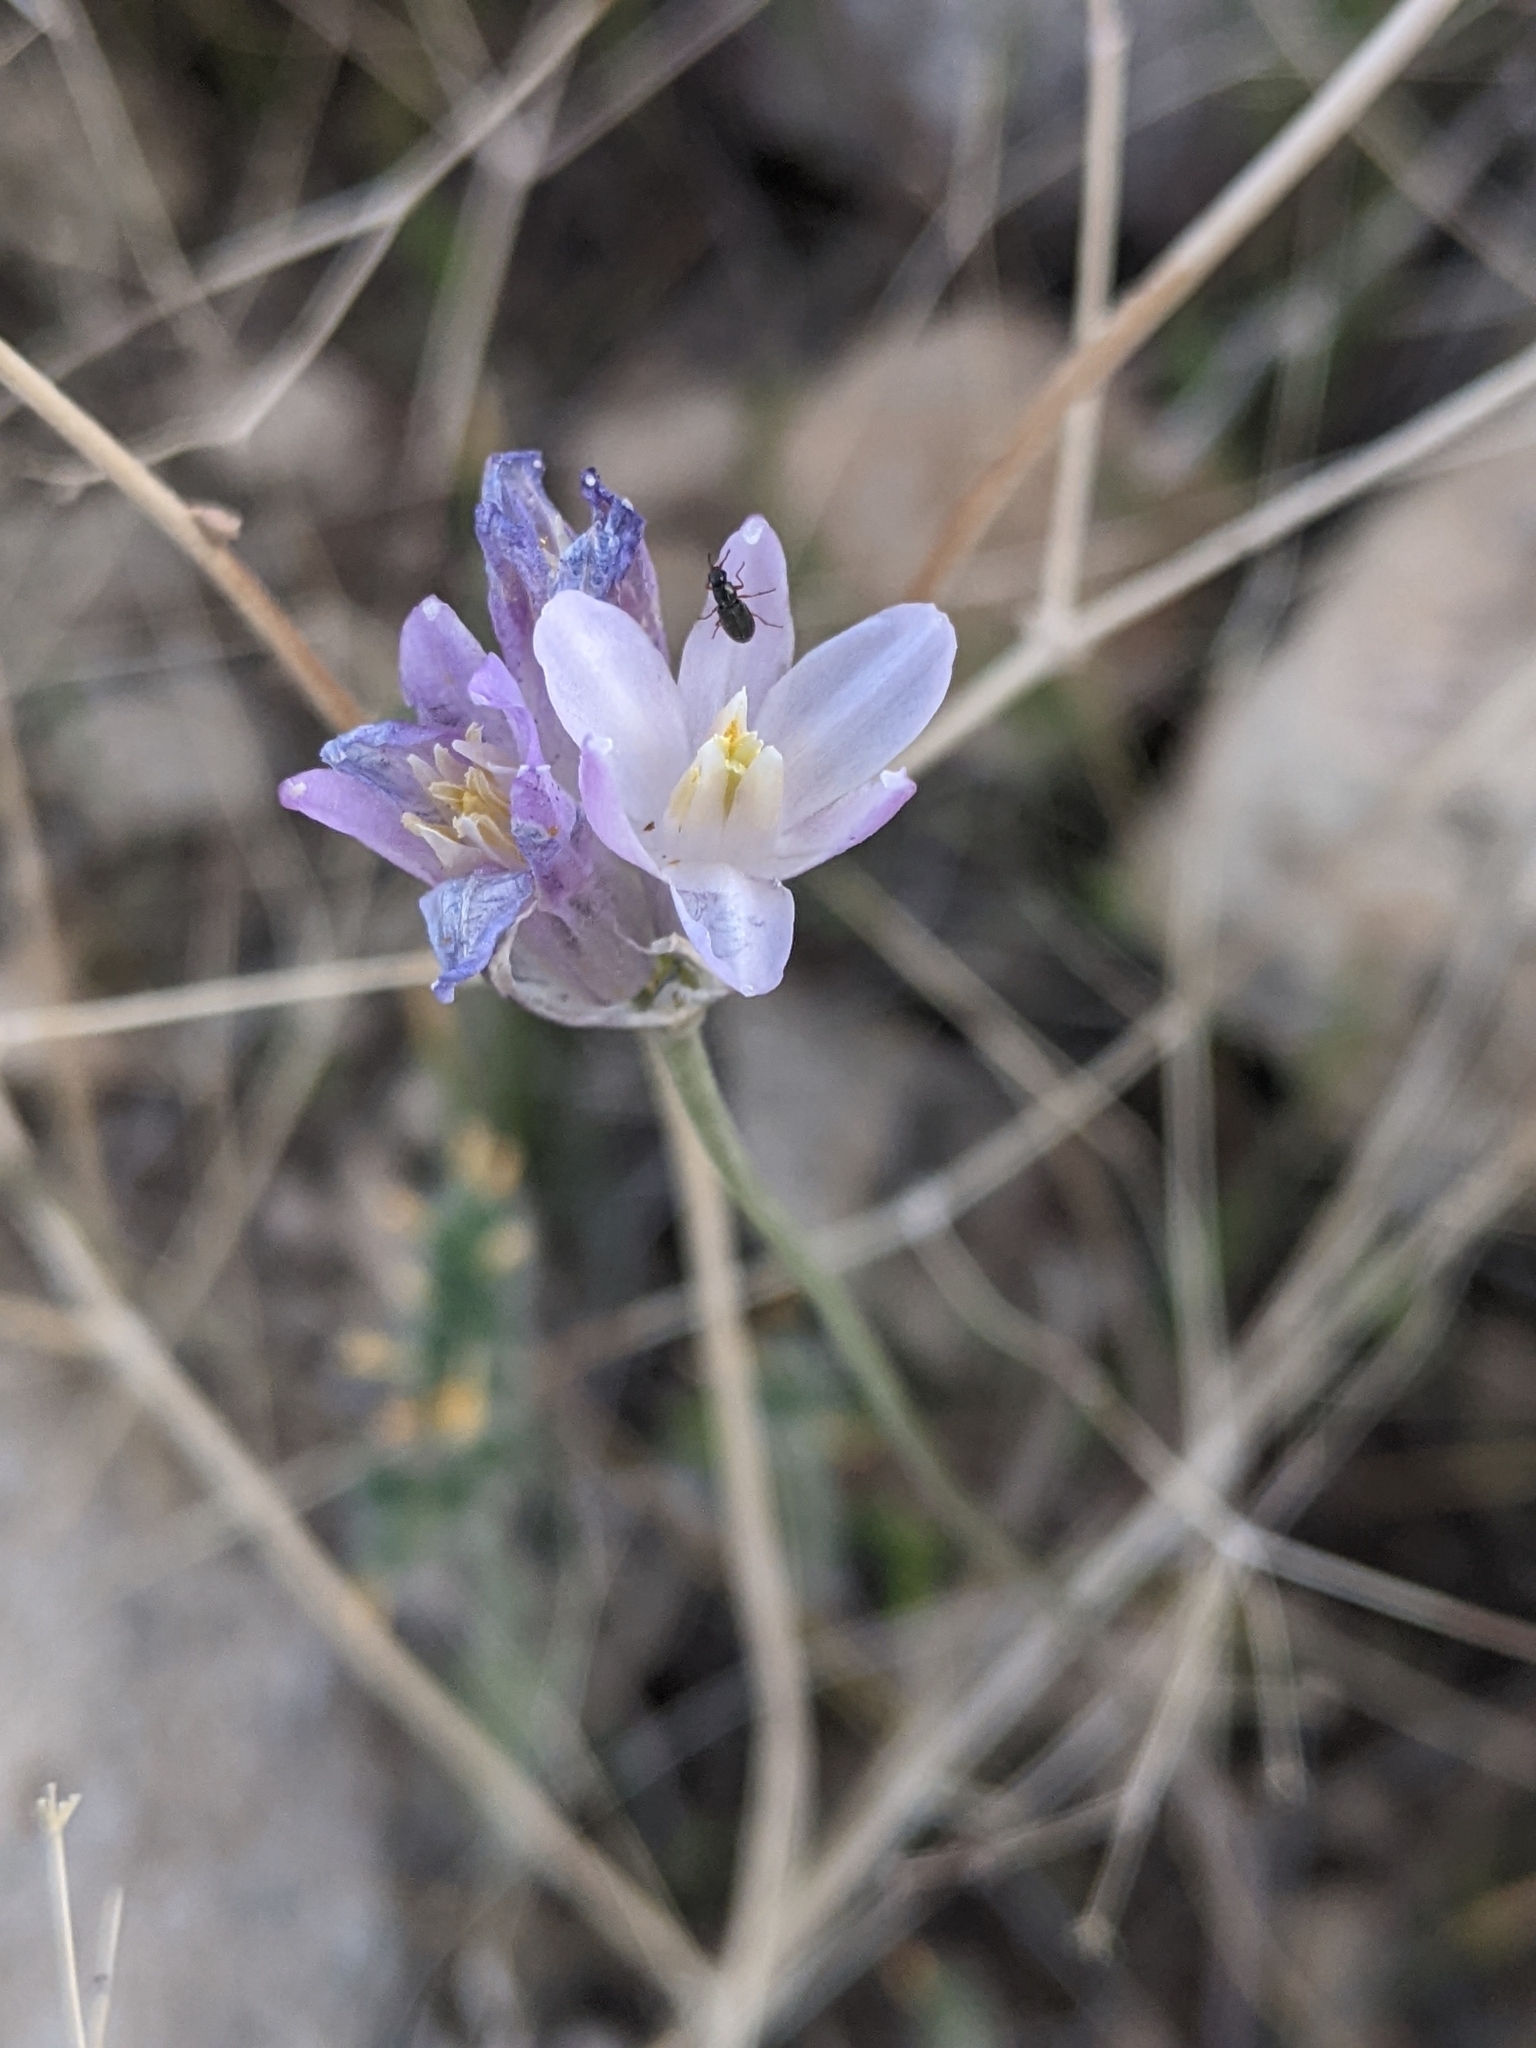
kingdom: Plantae
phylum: Tracheophyta
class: Liliopsida
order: Asparagales
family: Asparagaceae
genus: Dipterostemon
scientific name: Dipterostemon capitatus
